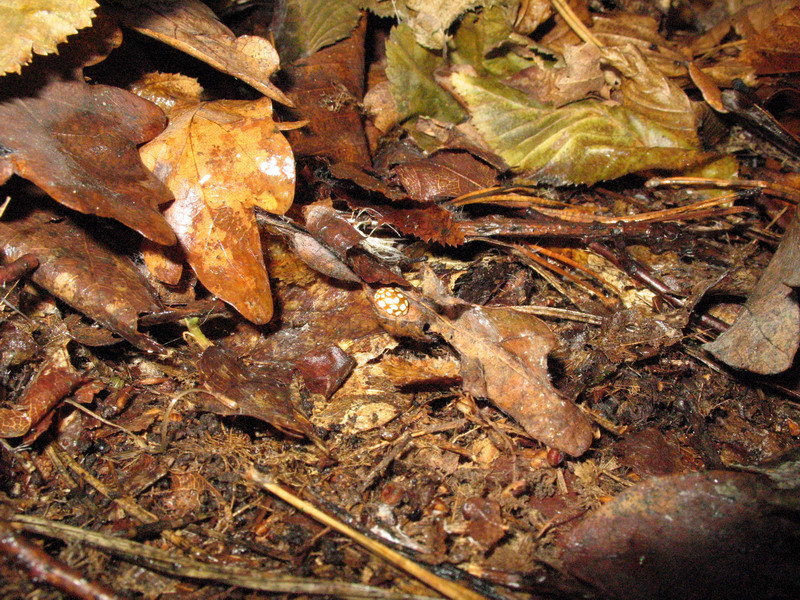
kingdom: Animalia
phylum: Arthropoda
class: Insecta
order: Coleoptera
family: Coccinellidae
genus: Sospita
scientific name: Sospita vigintiguttata
